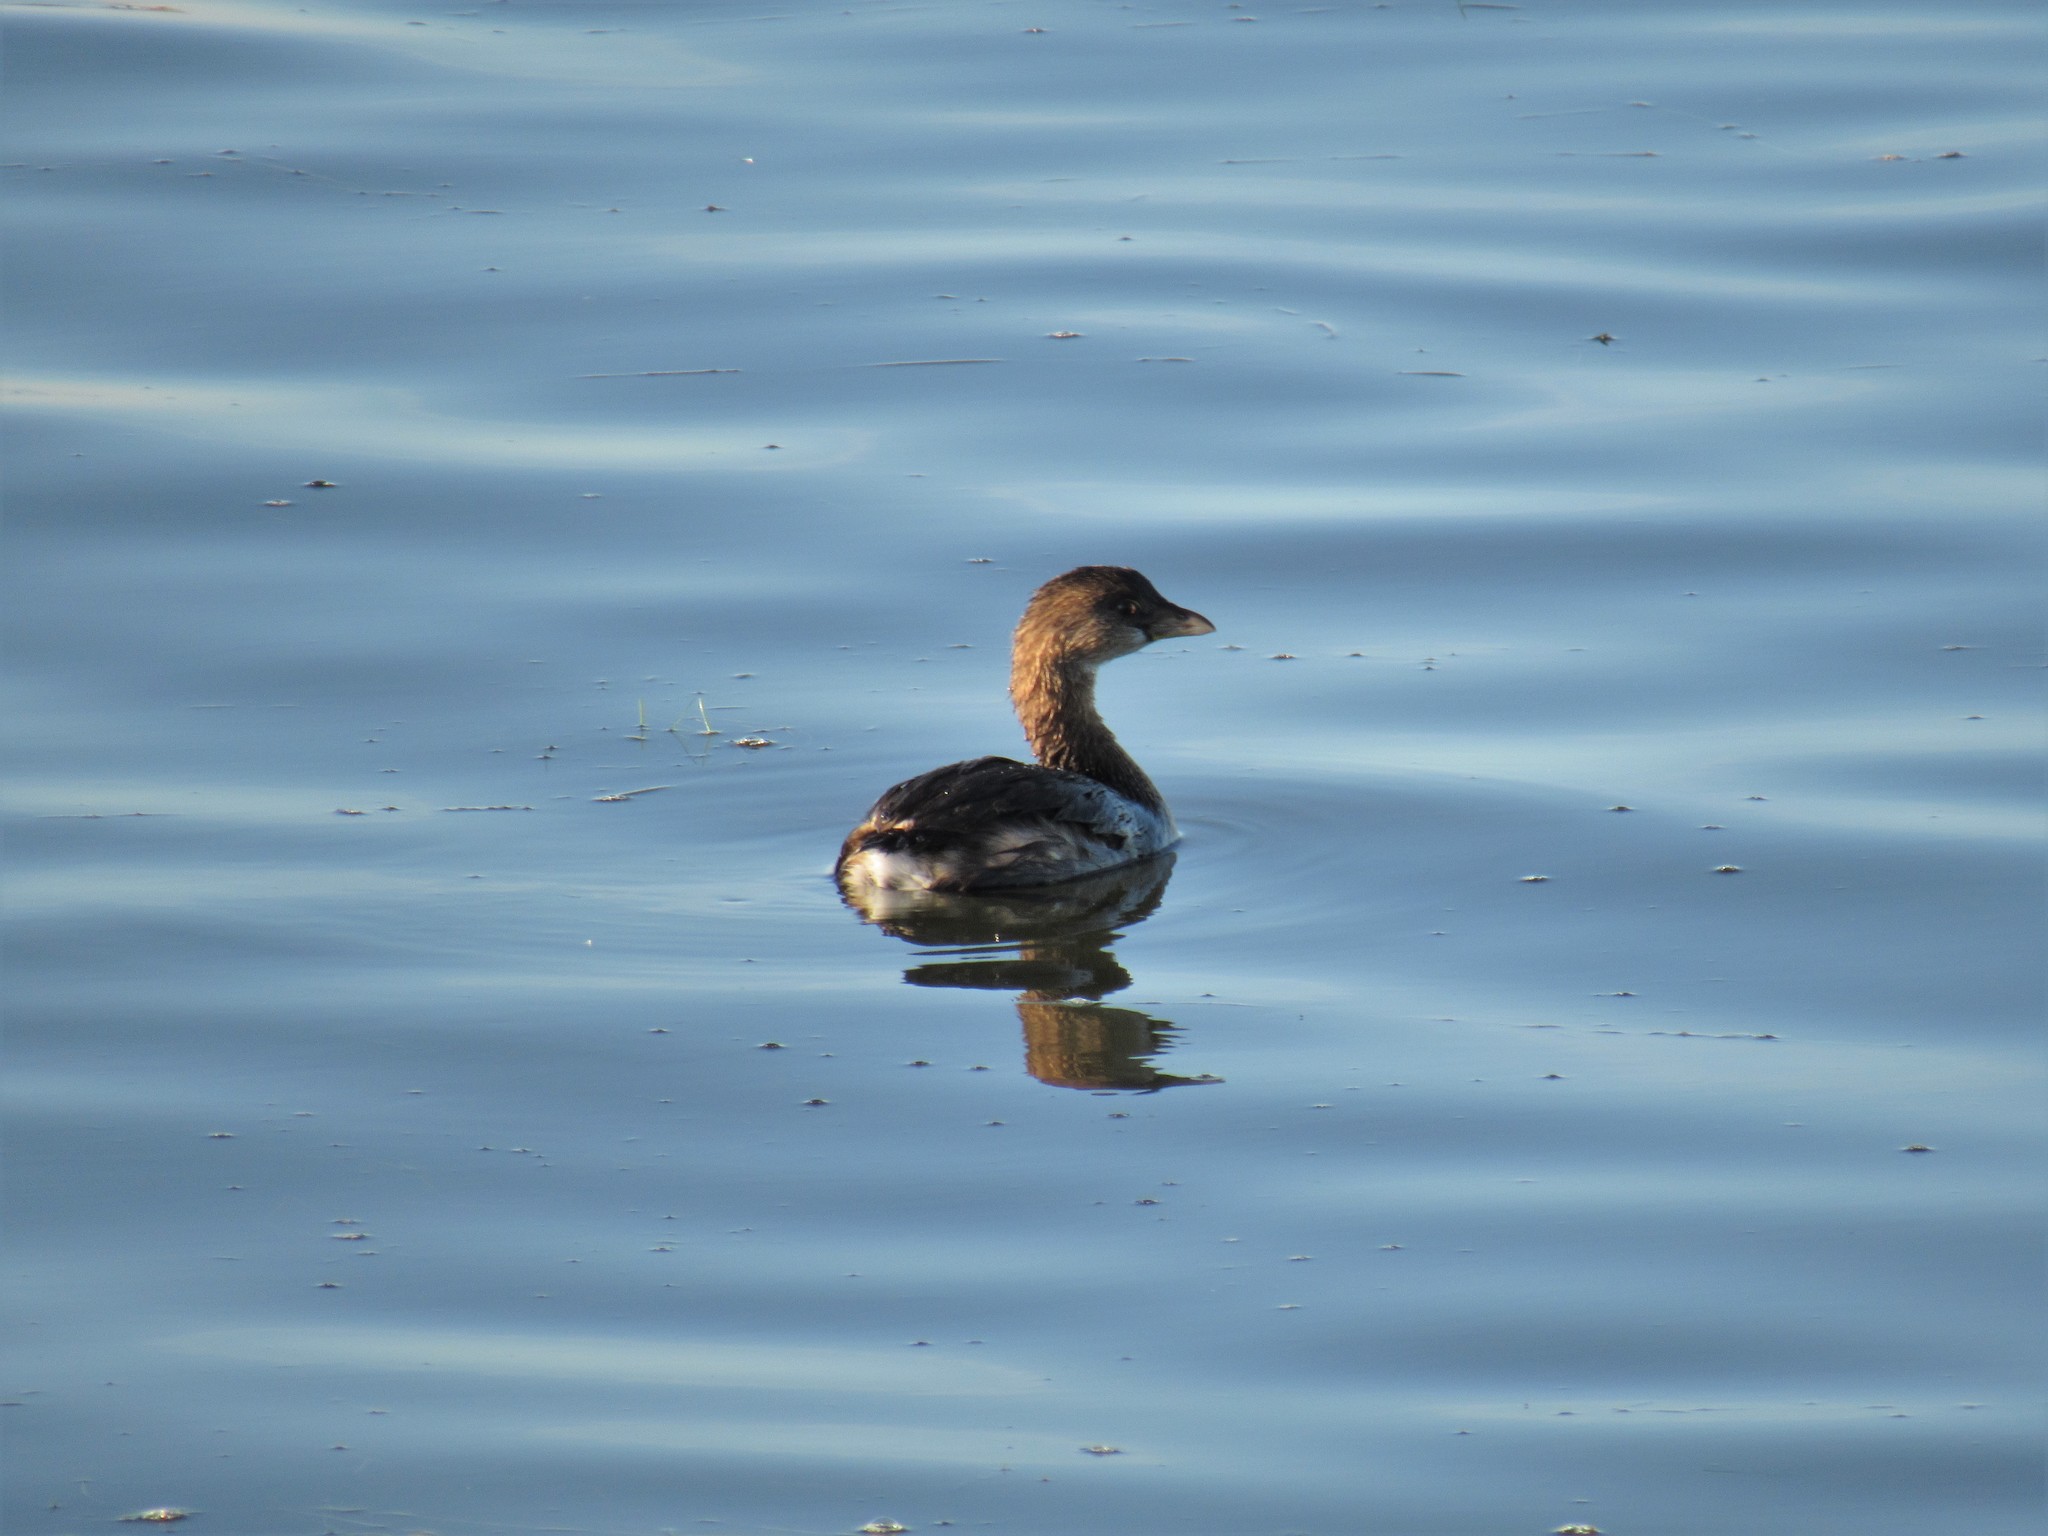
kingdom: Animalia
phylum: Chordata
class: Aves
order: Podicipediformes
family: Podicipedidae
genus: Podilymbus
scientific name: Podilymbus podiceps
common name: Pied-billed grebe
